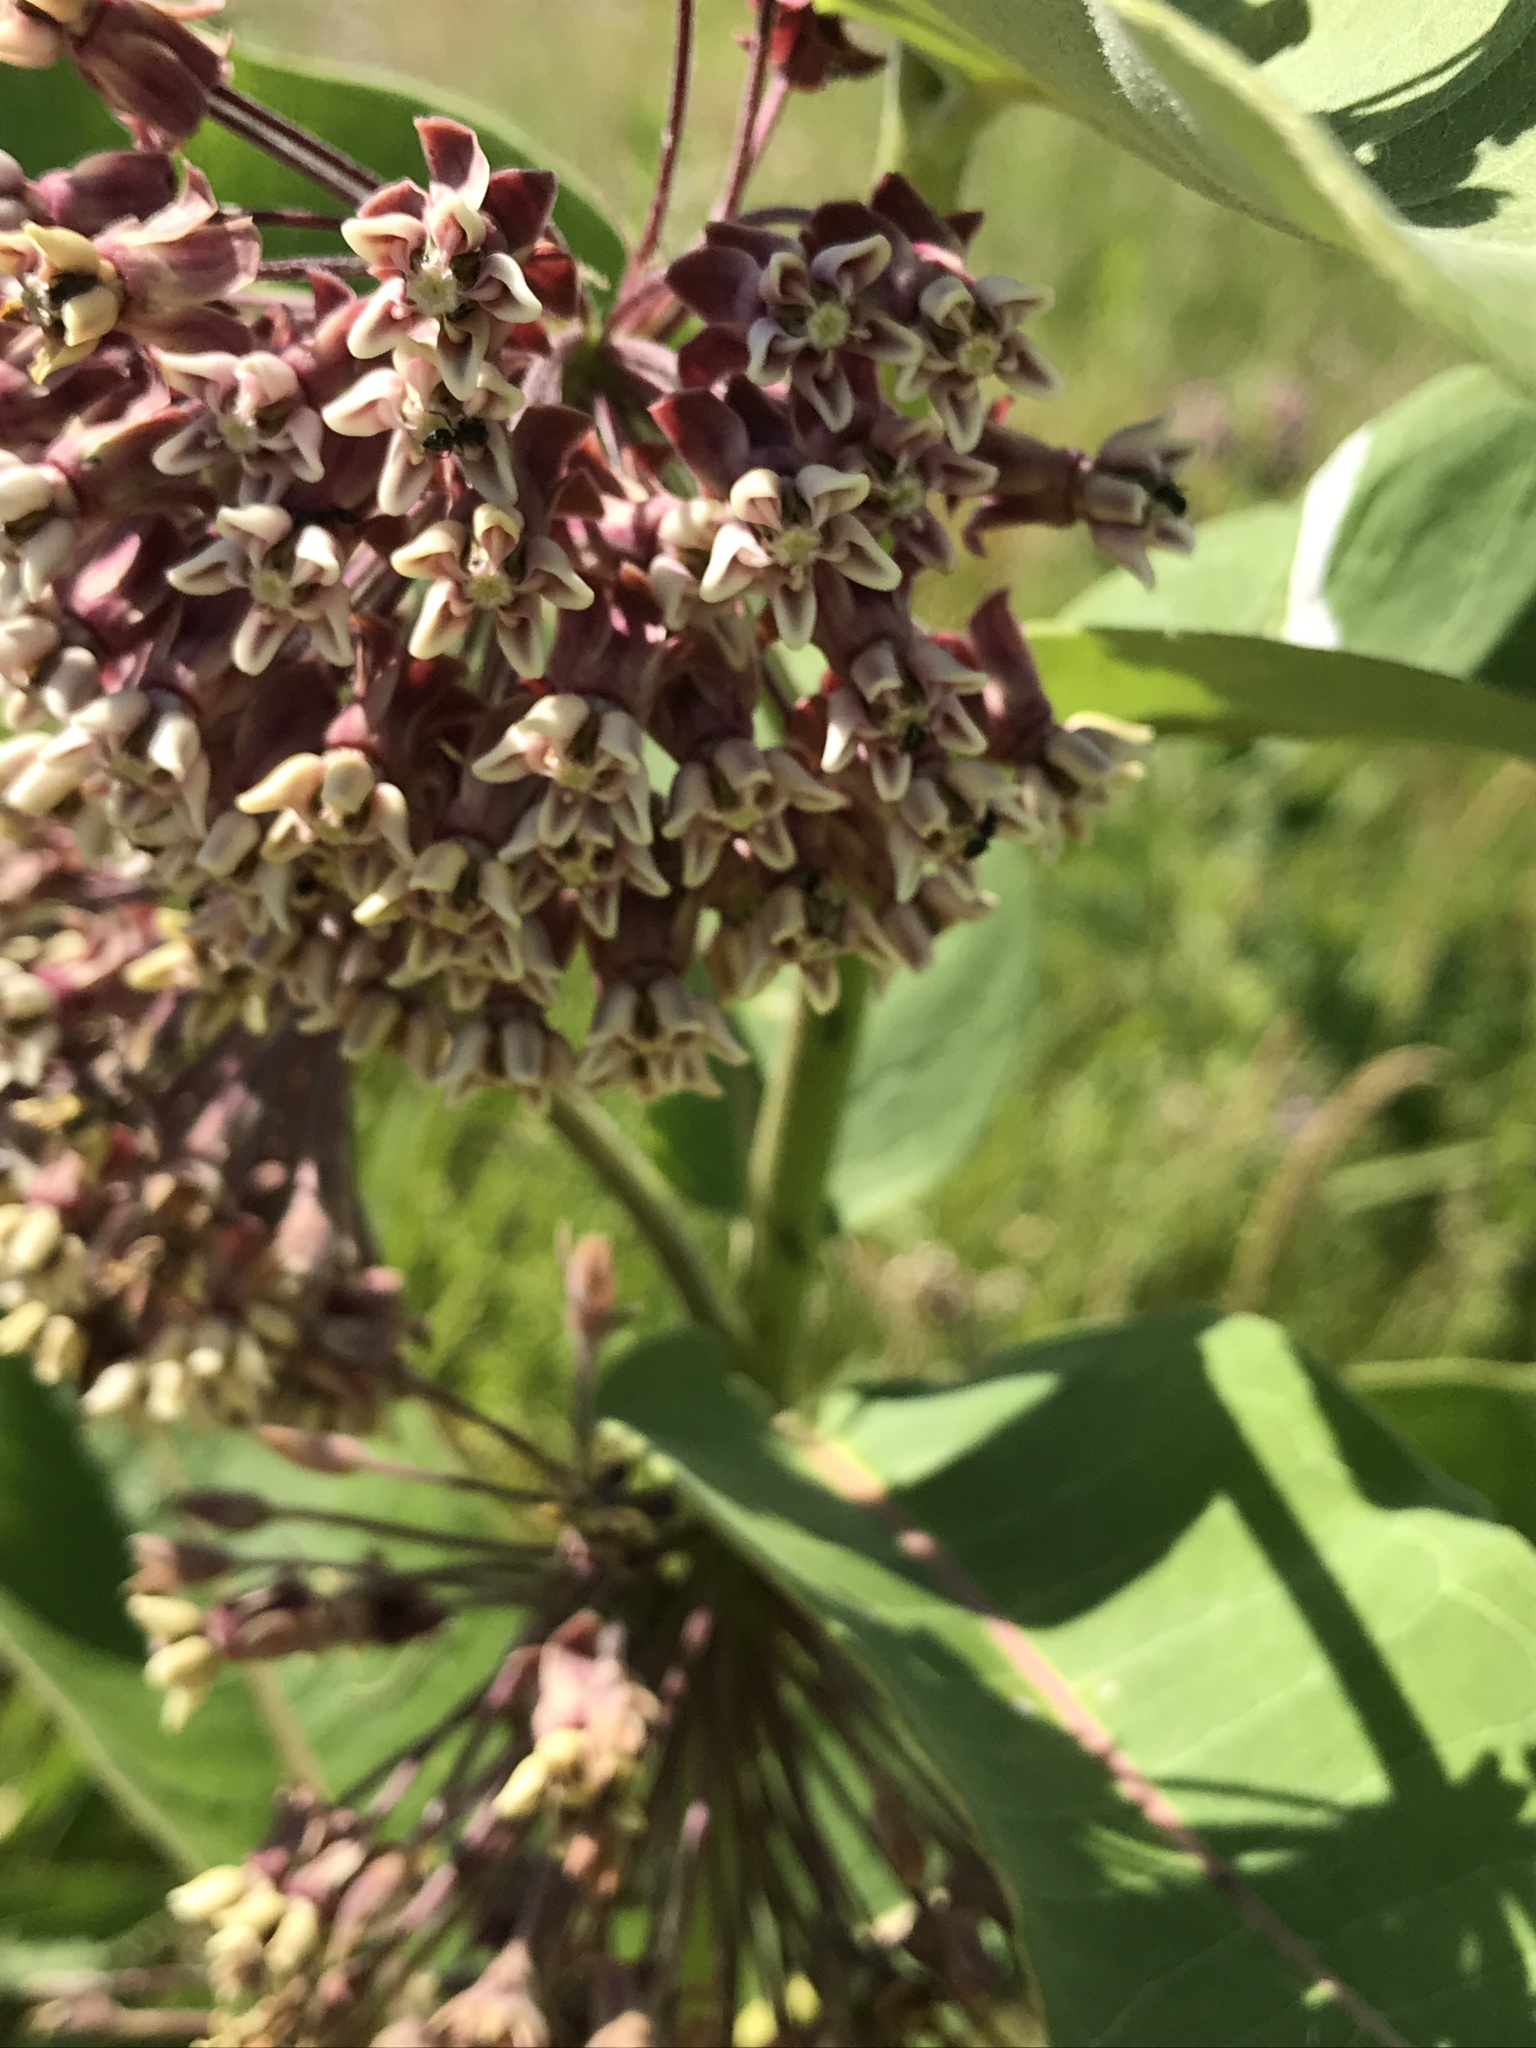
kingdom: Plantae
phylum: Tracheophyta
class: Magnoliopsida
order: Gentianales
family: Apocynaceae
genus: Asclepias
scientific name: Asclepias syriaca
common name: Common milkweed
